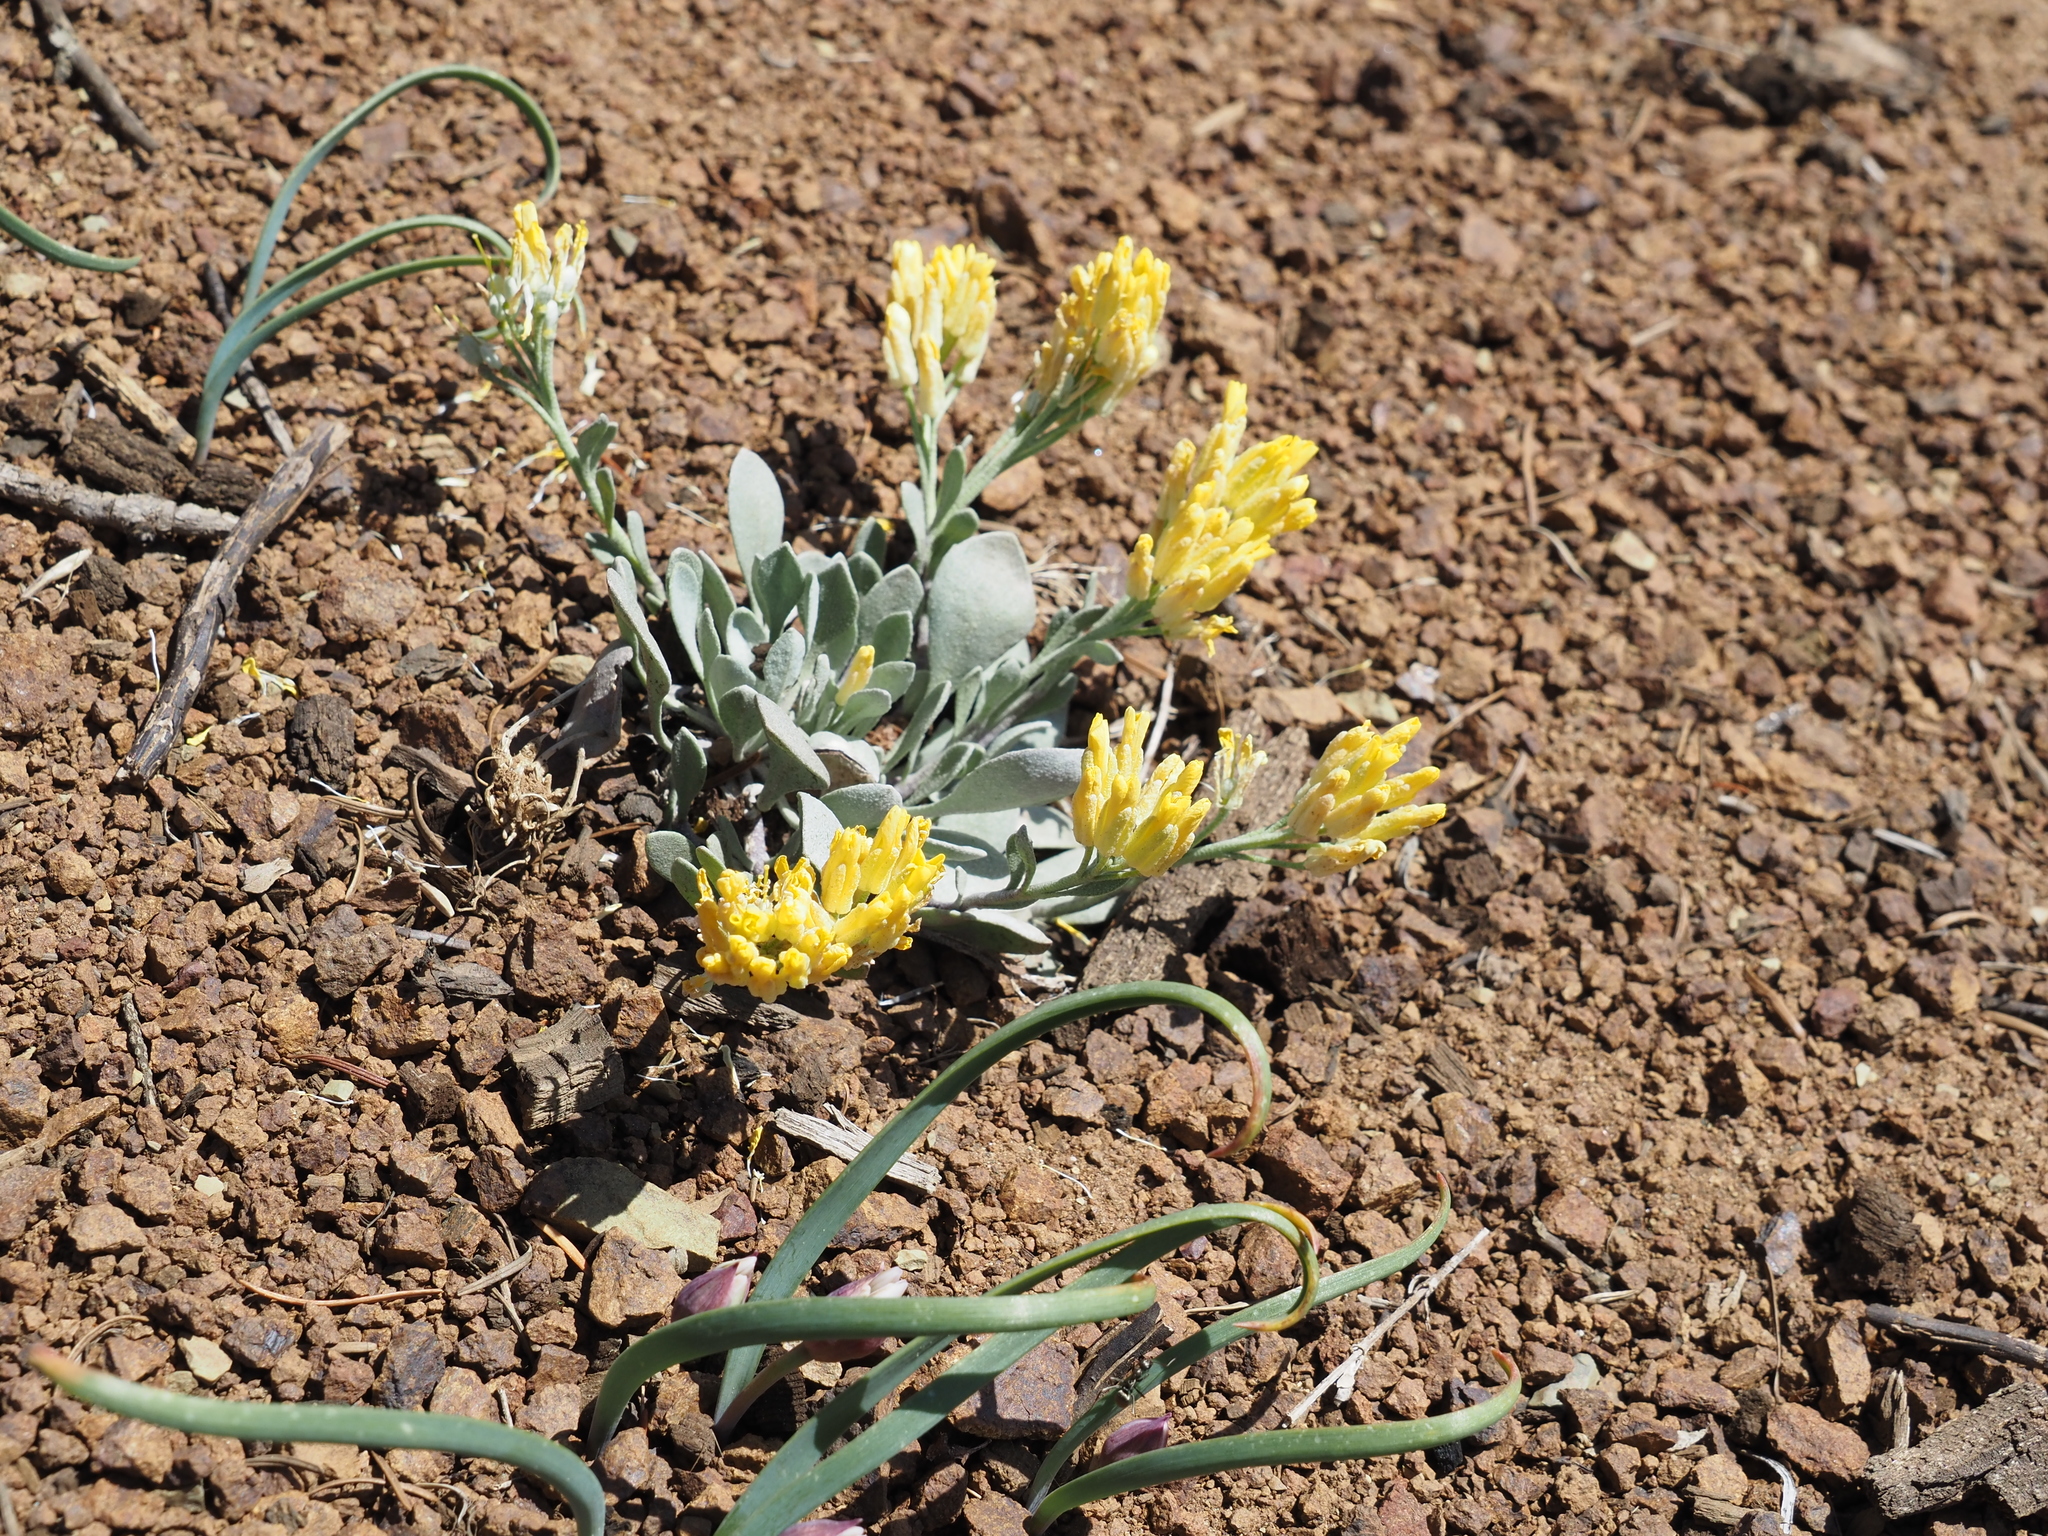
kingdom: Plantae
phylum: Tracheophyta
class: Magnoliopsida
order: Brassicales
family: Brassicaceae
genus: Physaria
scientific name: Physaria alpestris
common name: Washington twinpod
